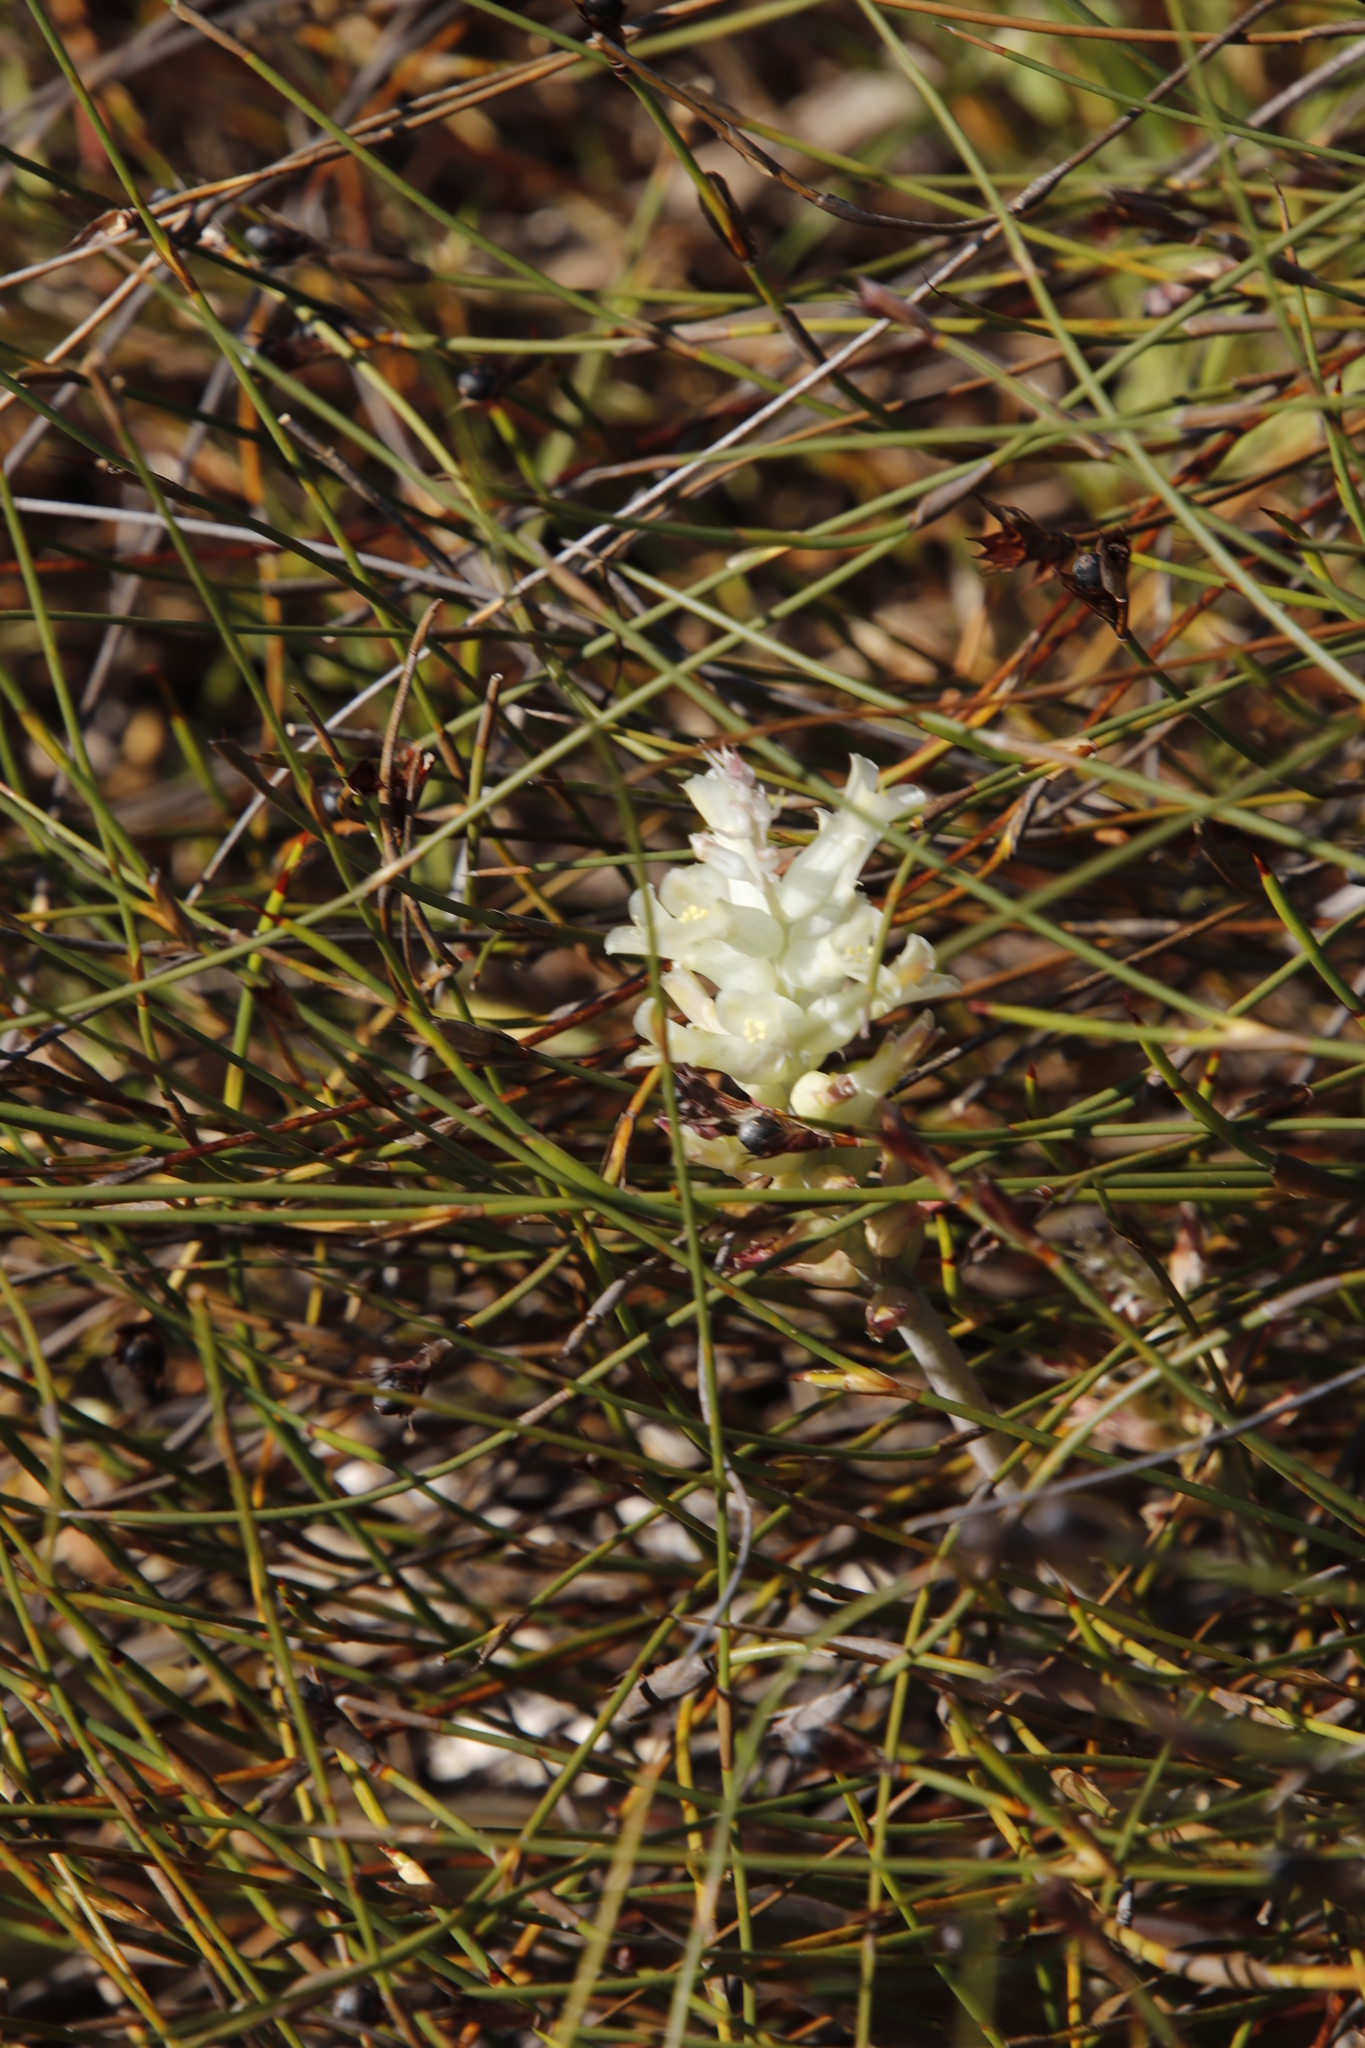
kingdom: Plantae
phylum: Tracheophyta
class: Liliopsida
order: Asparagales
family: Asparagaceae
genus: Lachenalia
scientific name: Lachenalia orchioides
